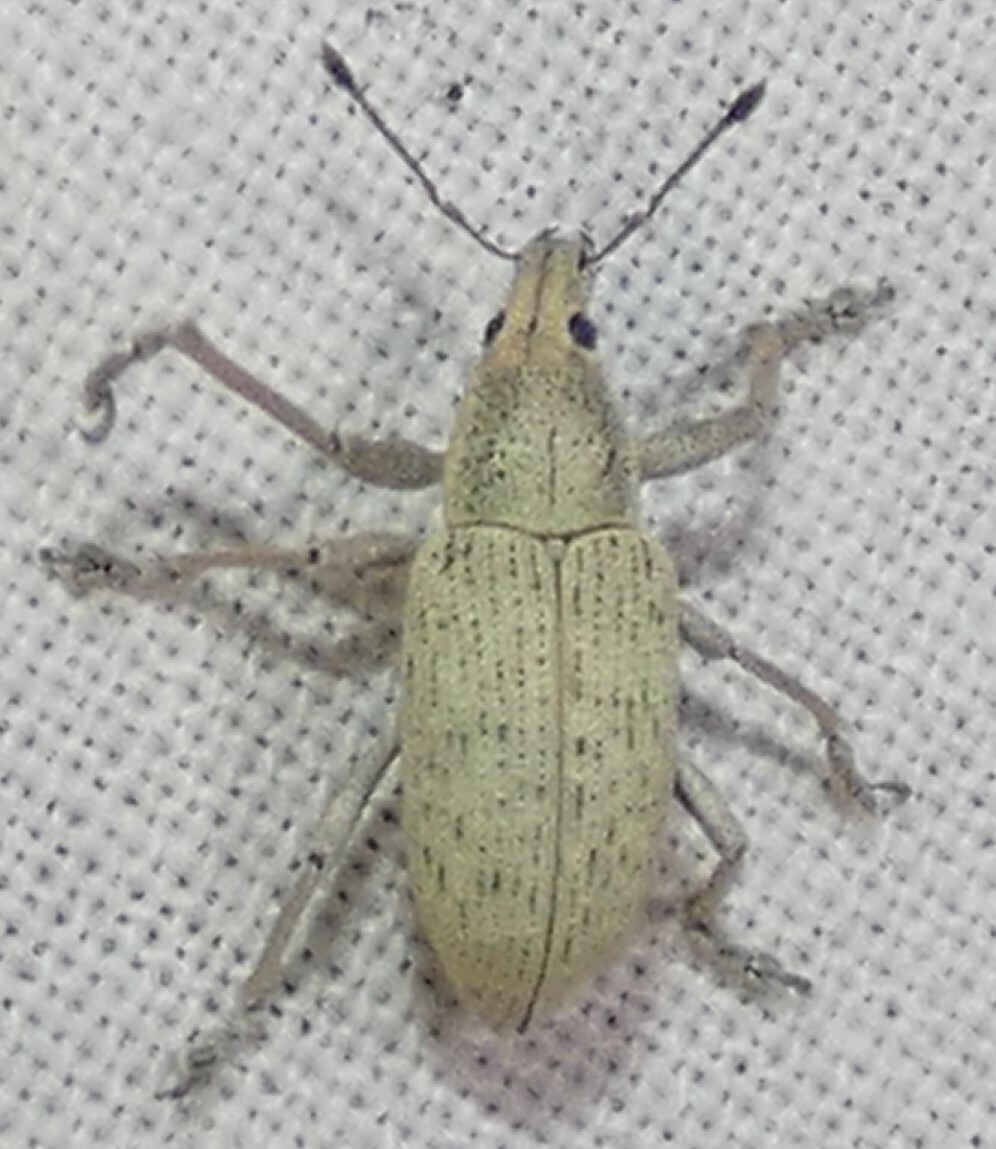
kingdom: Animalia
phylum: Arthropoda
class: Insecta
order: Coleoptera
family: Curculionidae
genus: Pachnaeus
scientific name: Pachnaeus opalus
